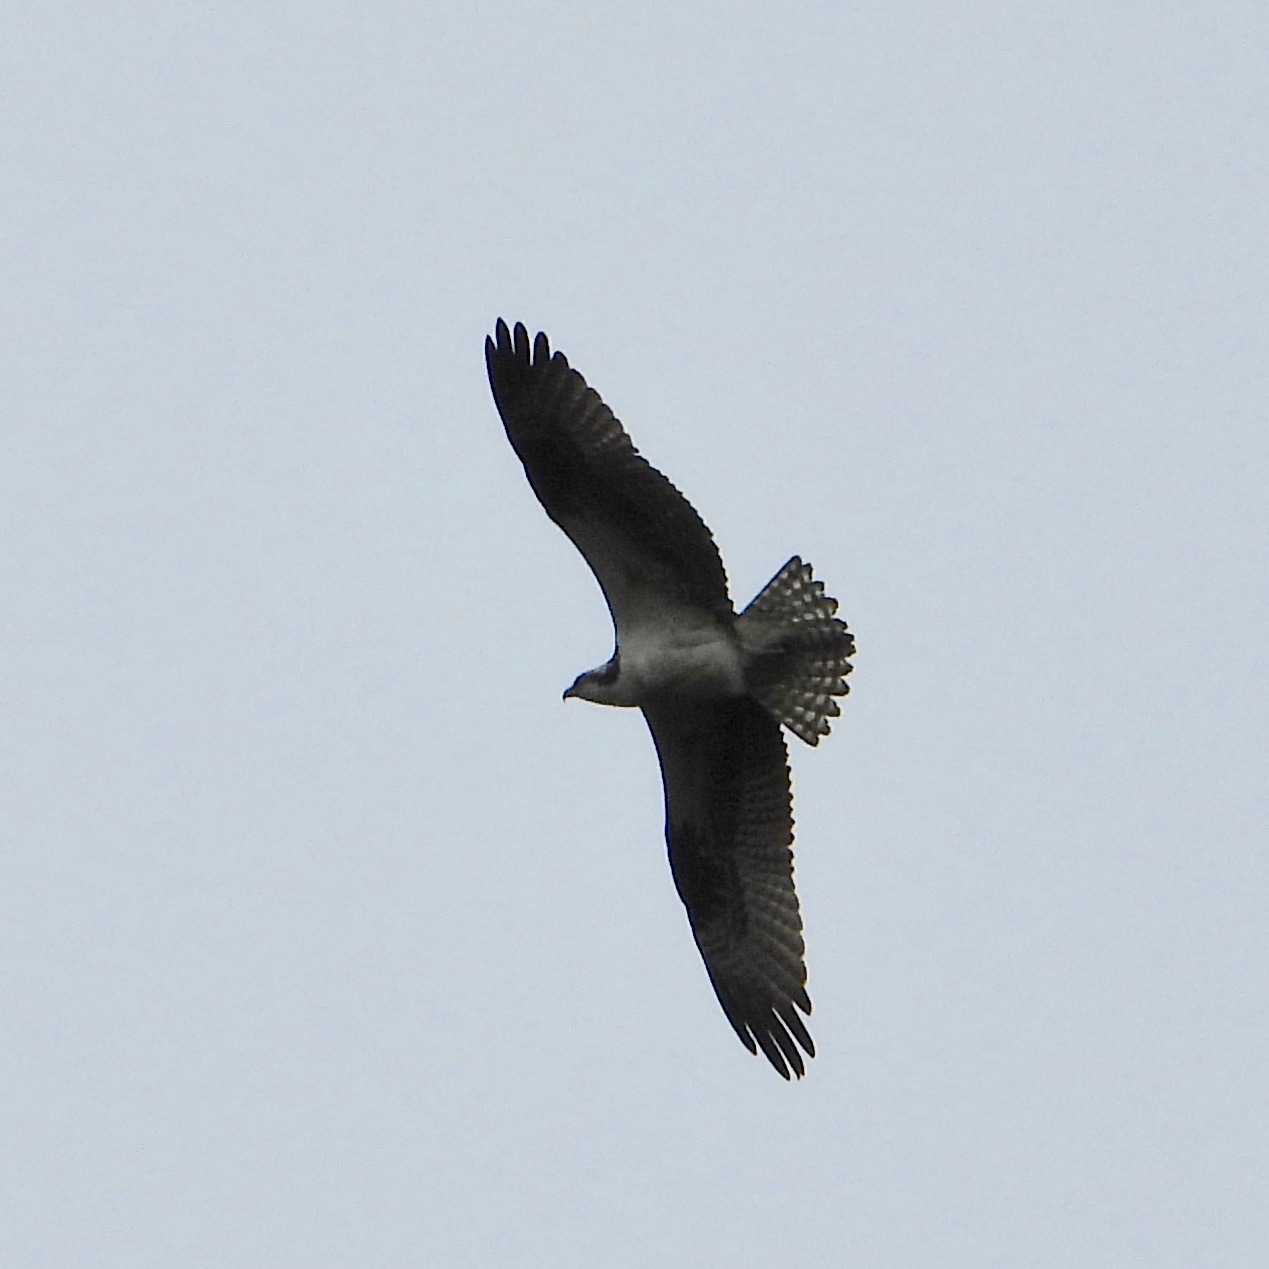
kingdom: Animalia
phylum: Chordata
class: Aves
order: Accipitriformes
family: Pandionidae
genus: Pandion
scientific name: Pandion haliaetus
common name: Osprey
